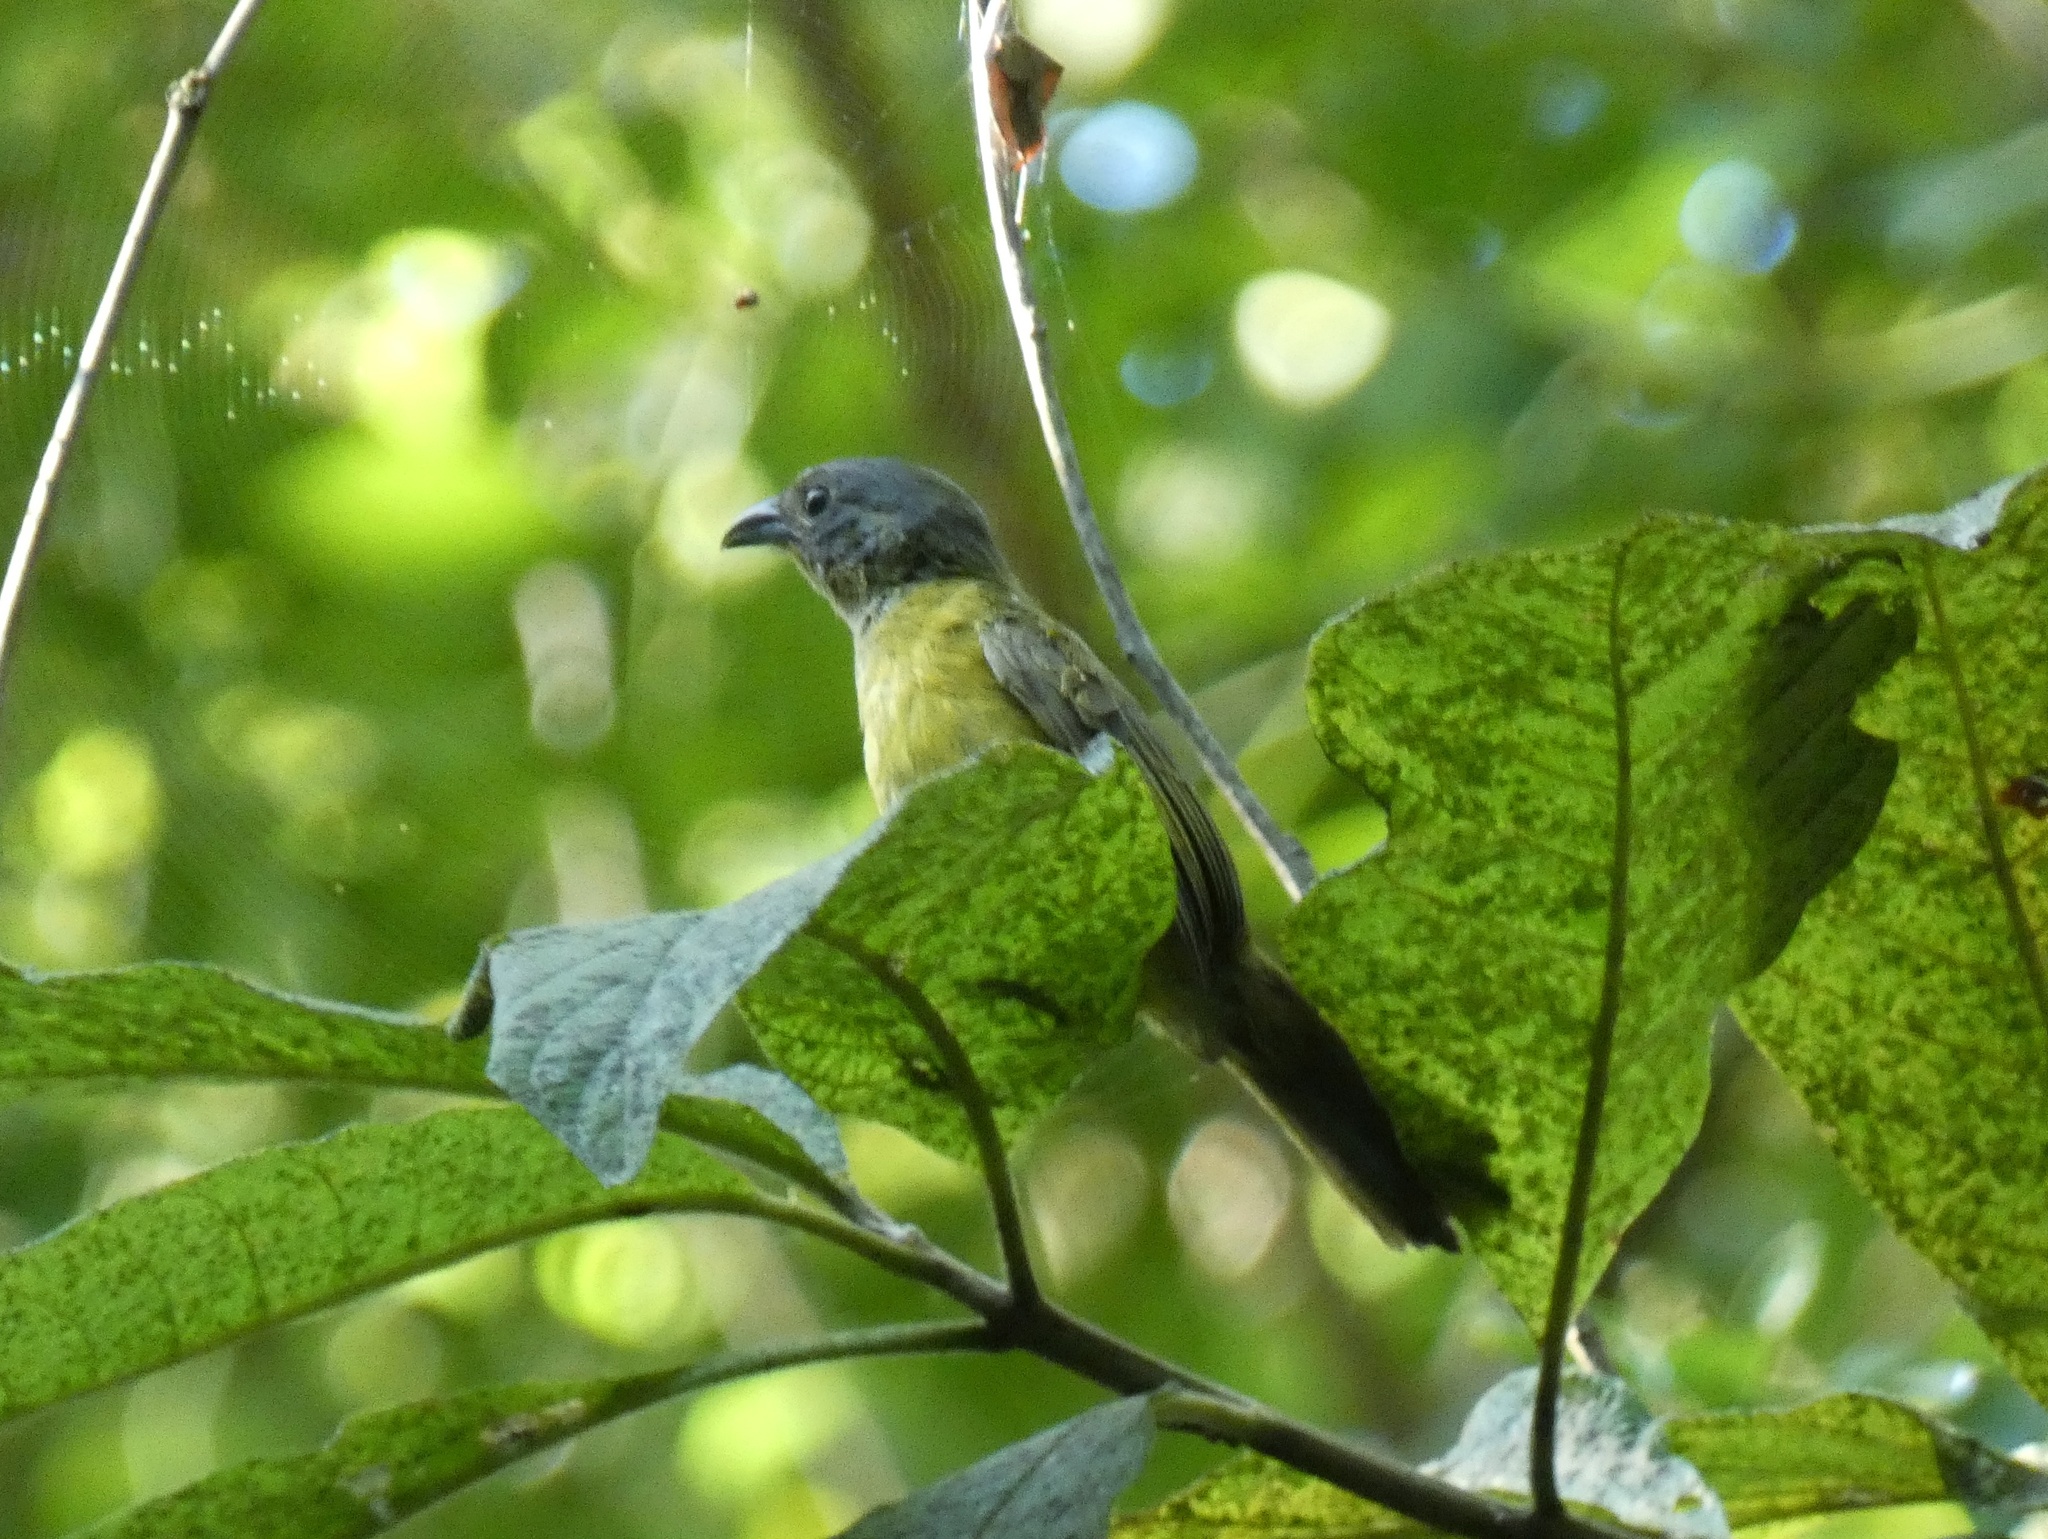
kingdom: Animalia
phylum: Chordata
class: Aves
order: Passeriformes
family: Thraupidae
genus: Ramphocelus
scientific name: Ramphocelus flammigerus
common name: Flame-rumped tanager
